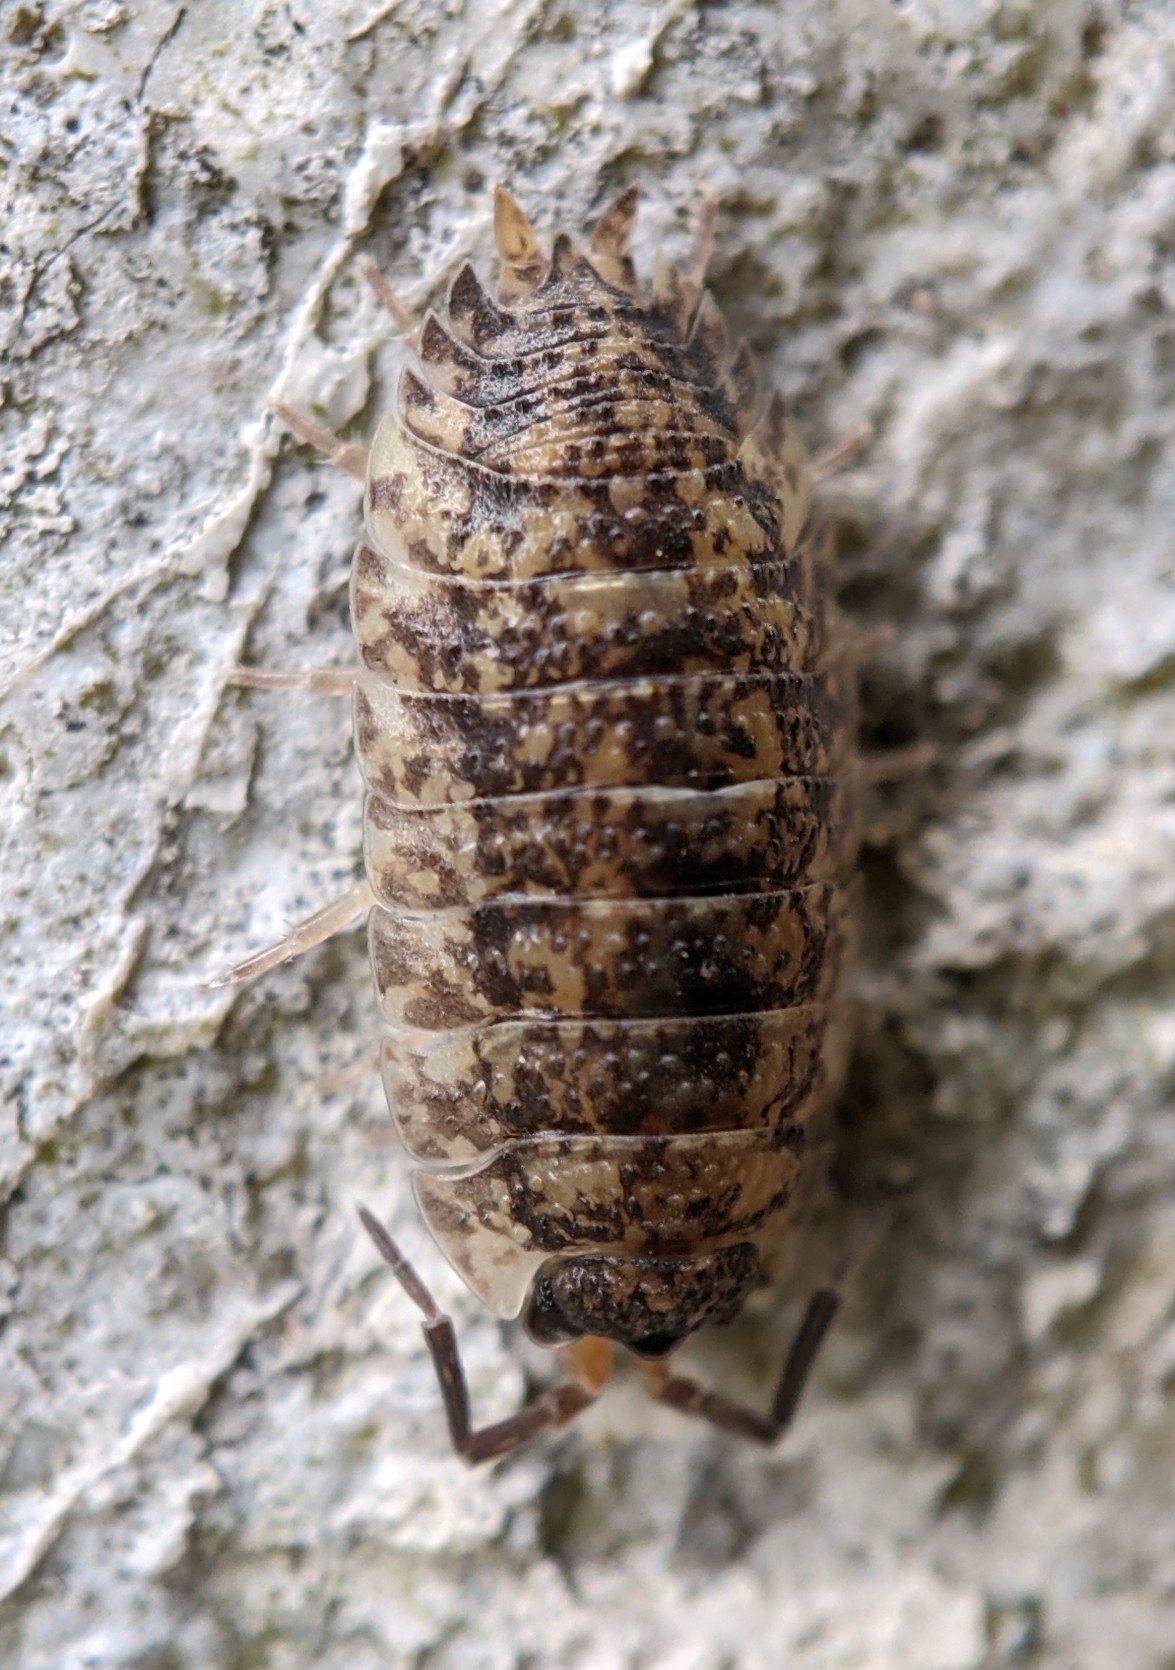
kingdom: Animalia
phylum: Arthropoda
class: Malacostraca
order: Isopoda
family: Porcellionidae
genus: Porcellio
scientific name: Porcellio scaber
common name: Common rough woodlouse
